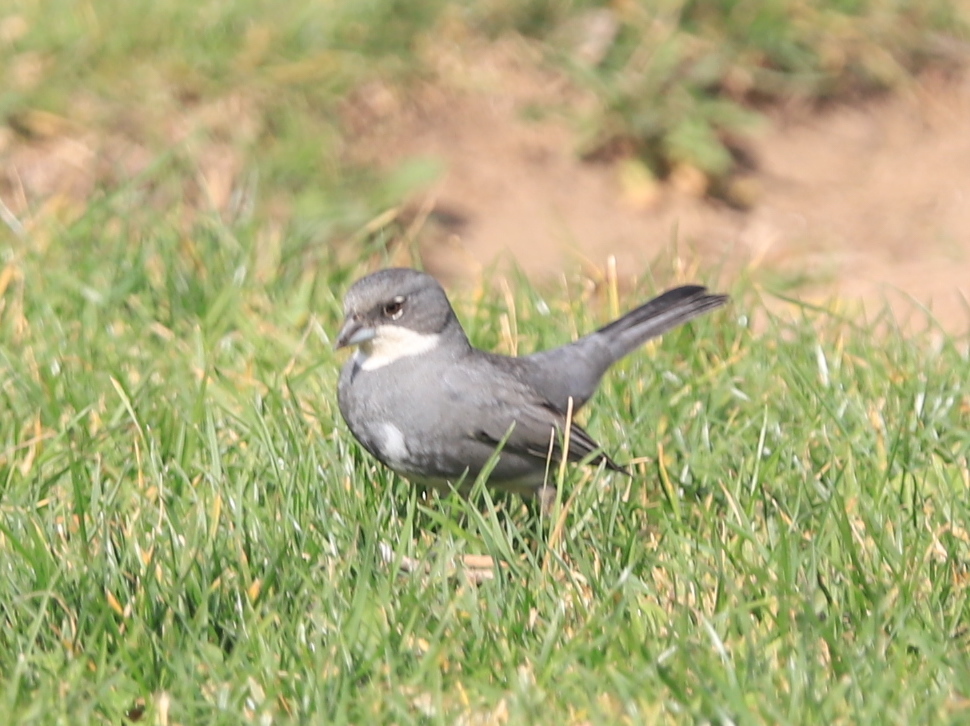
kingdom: Animalia
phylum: Chordata
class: Aves
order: Passeriformes
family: Thraupidae
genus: Diuca
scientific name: Diuca diuca
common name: Common diuca finch
